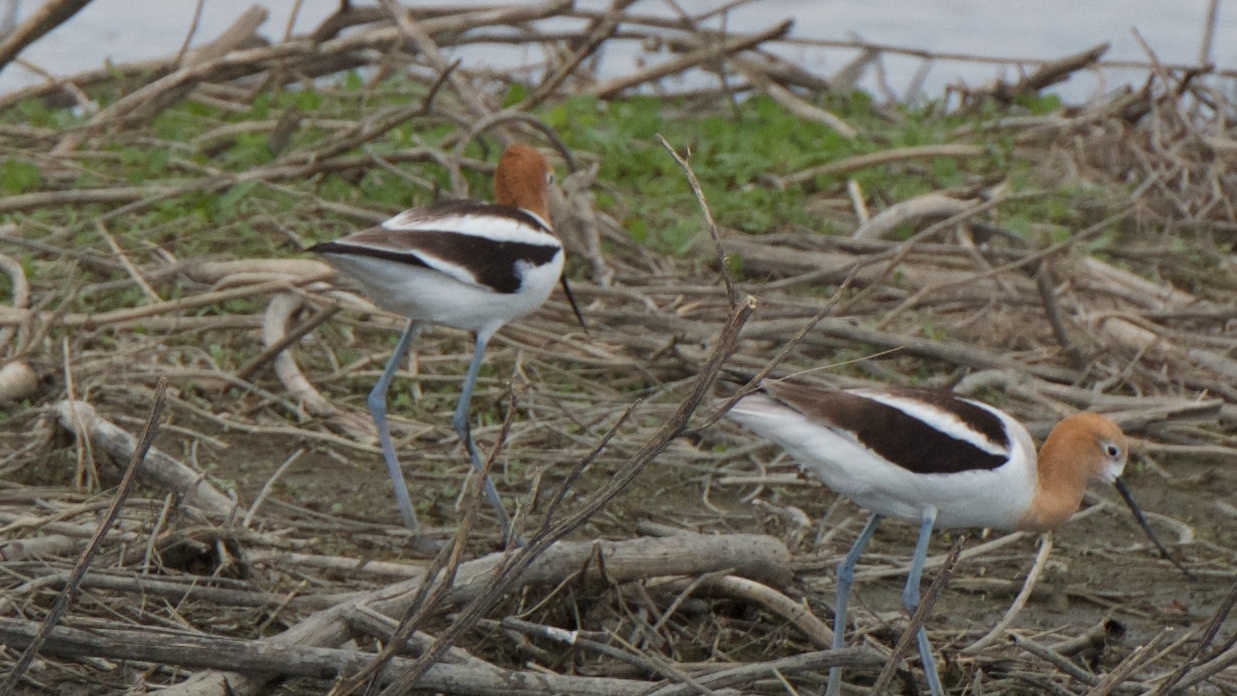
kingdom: Animalia
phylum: Chordata
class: Aves
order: Charadriiformes
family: Recurvirostridae
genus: Recurvirostra
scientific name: Recurvirostra americana
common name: American avocet
